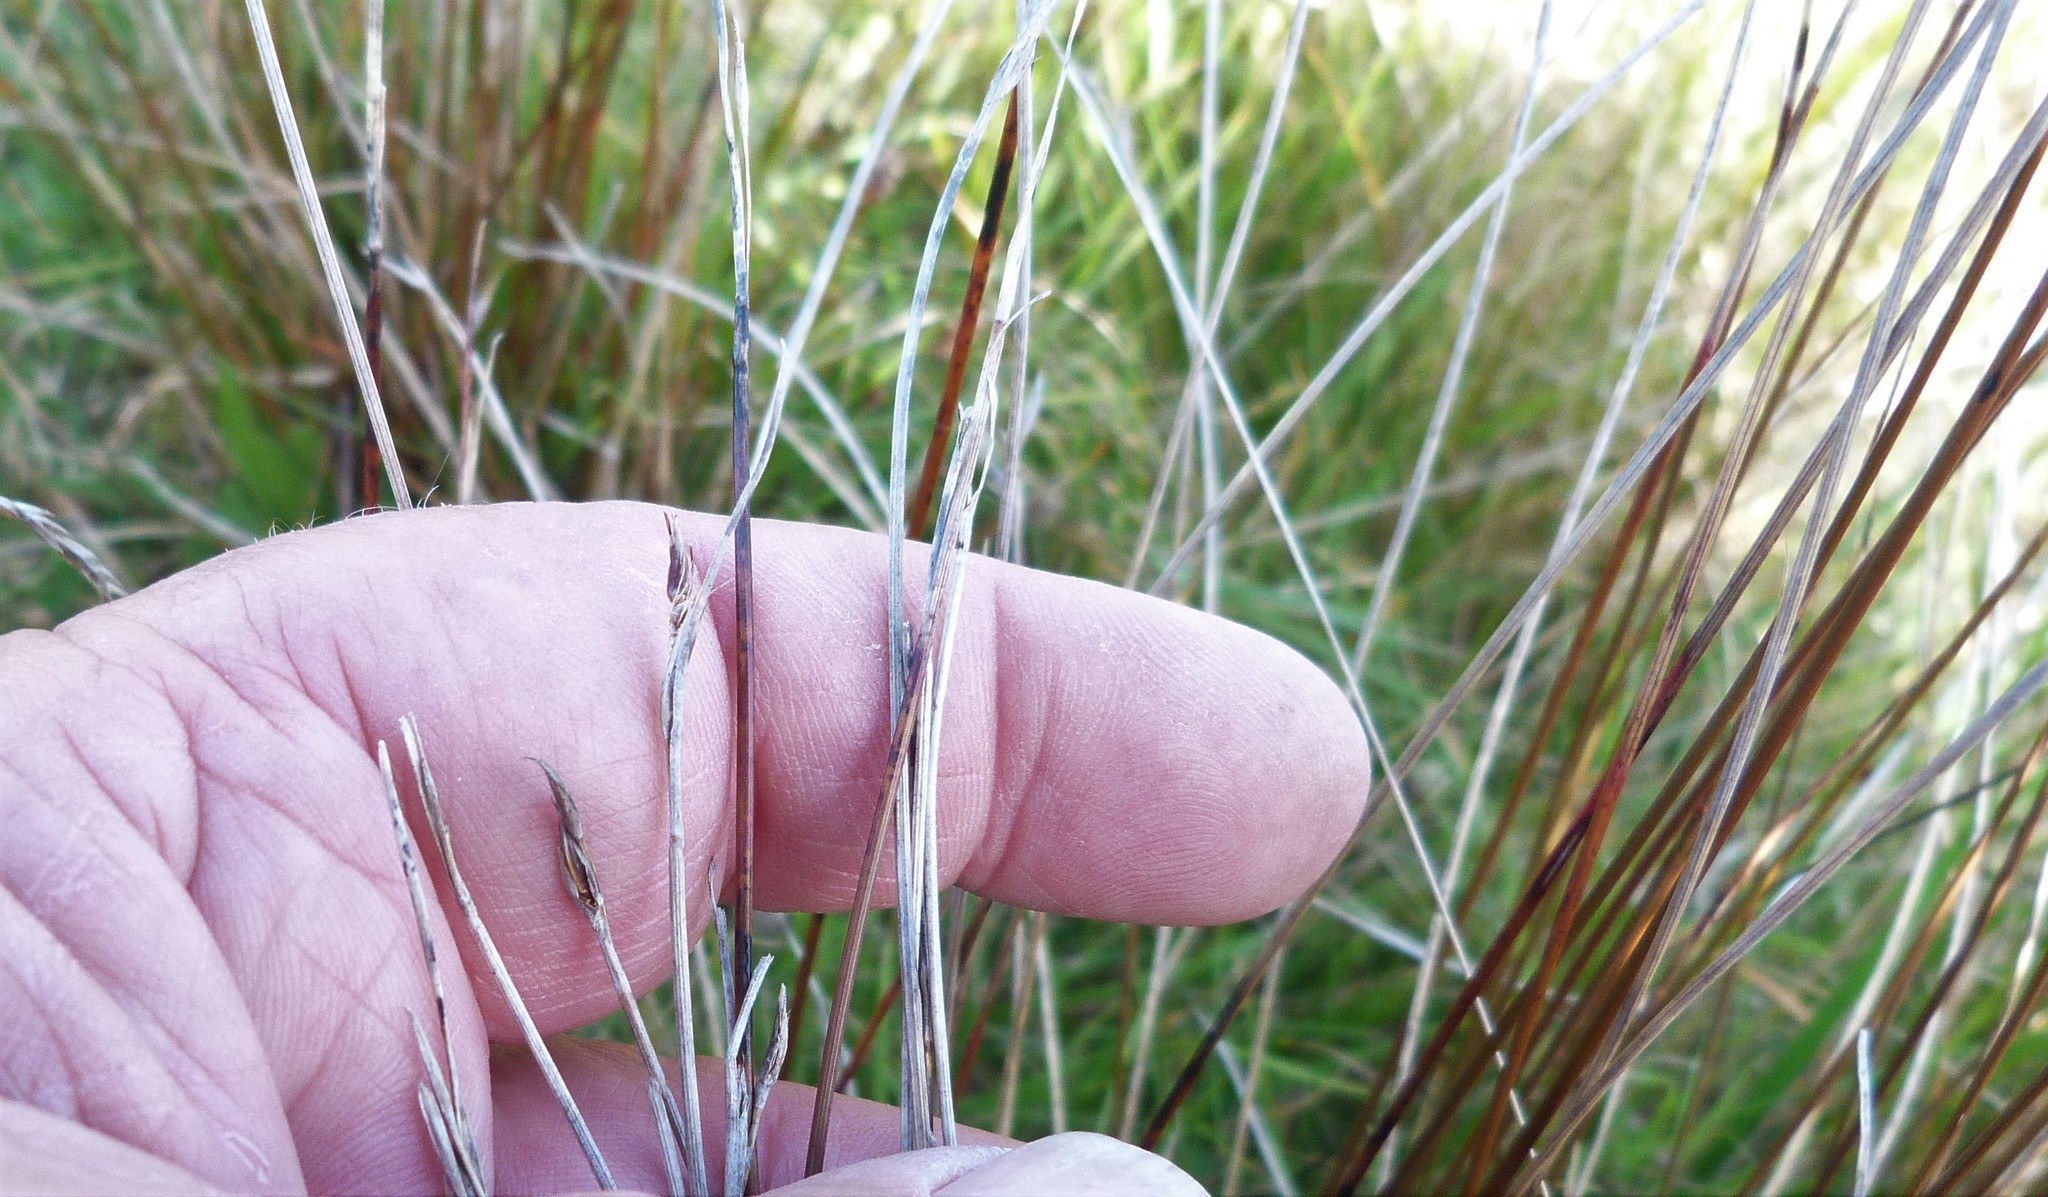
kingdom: Plantae
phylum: Tracheophyta
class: Liliopsida
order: Poales
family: Cyperaceae
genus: Schoenus
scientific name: Schoenus pauciflorus
